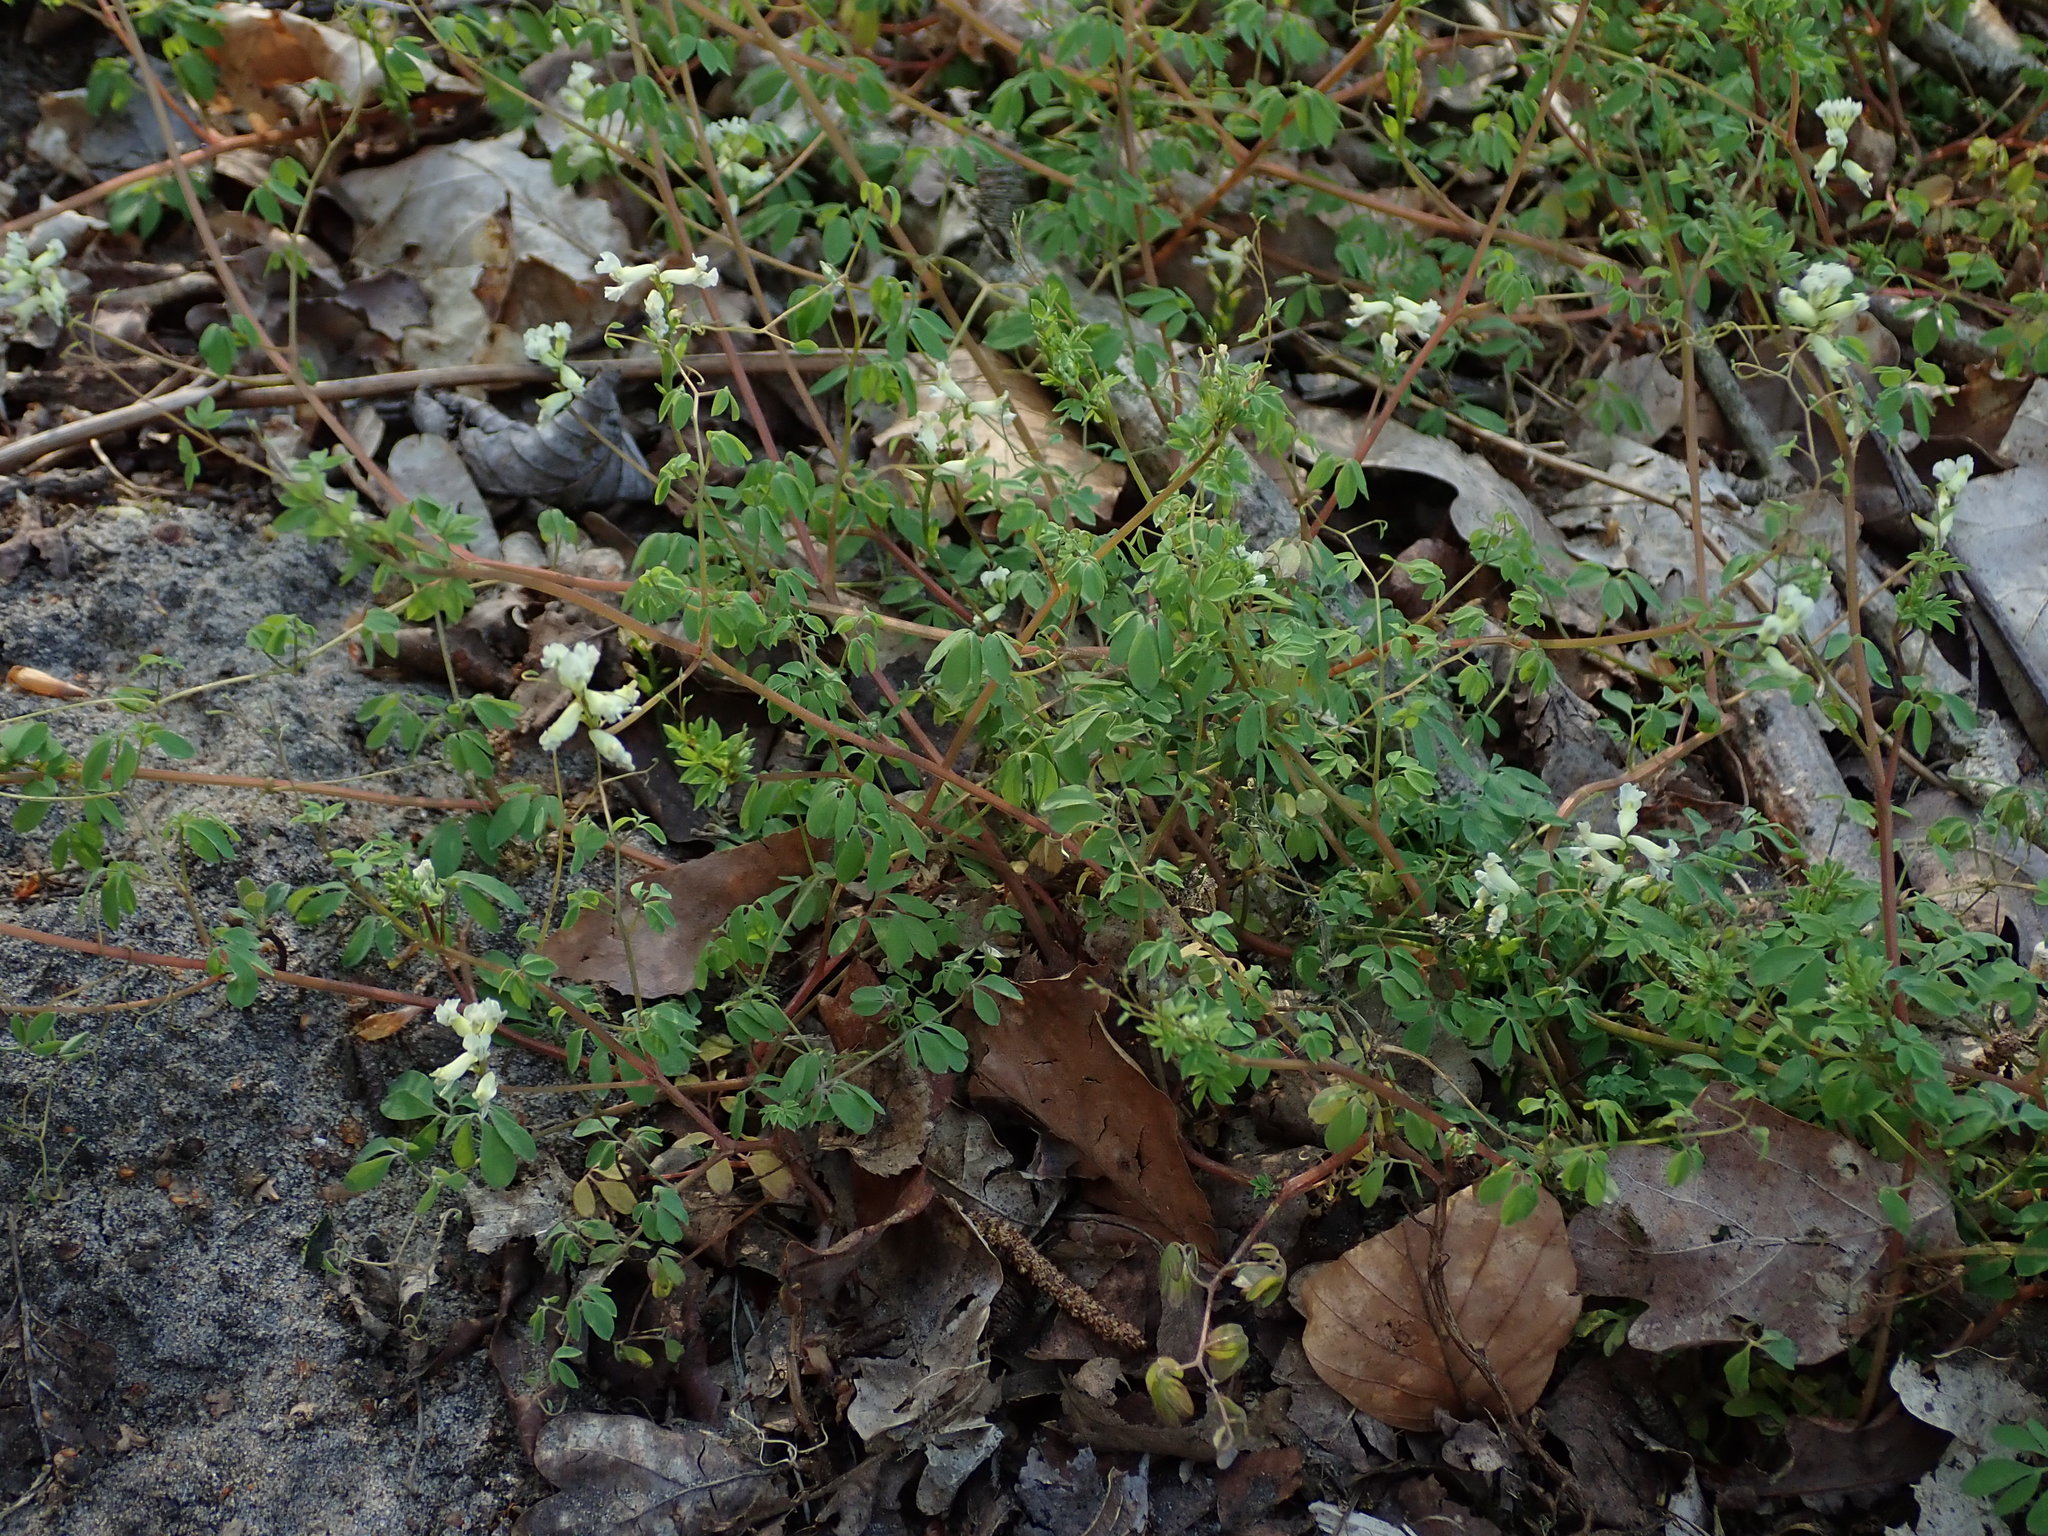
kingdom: Plantae
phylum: Tracheophyta
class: Magnoliopsida
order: Ranunculales
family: Papaveraceae
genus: Ceratocapnos
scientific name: Ceratocapnos claviculata
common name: Climbing corydalis
